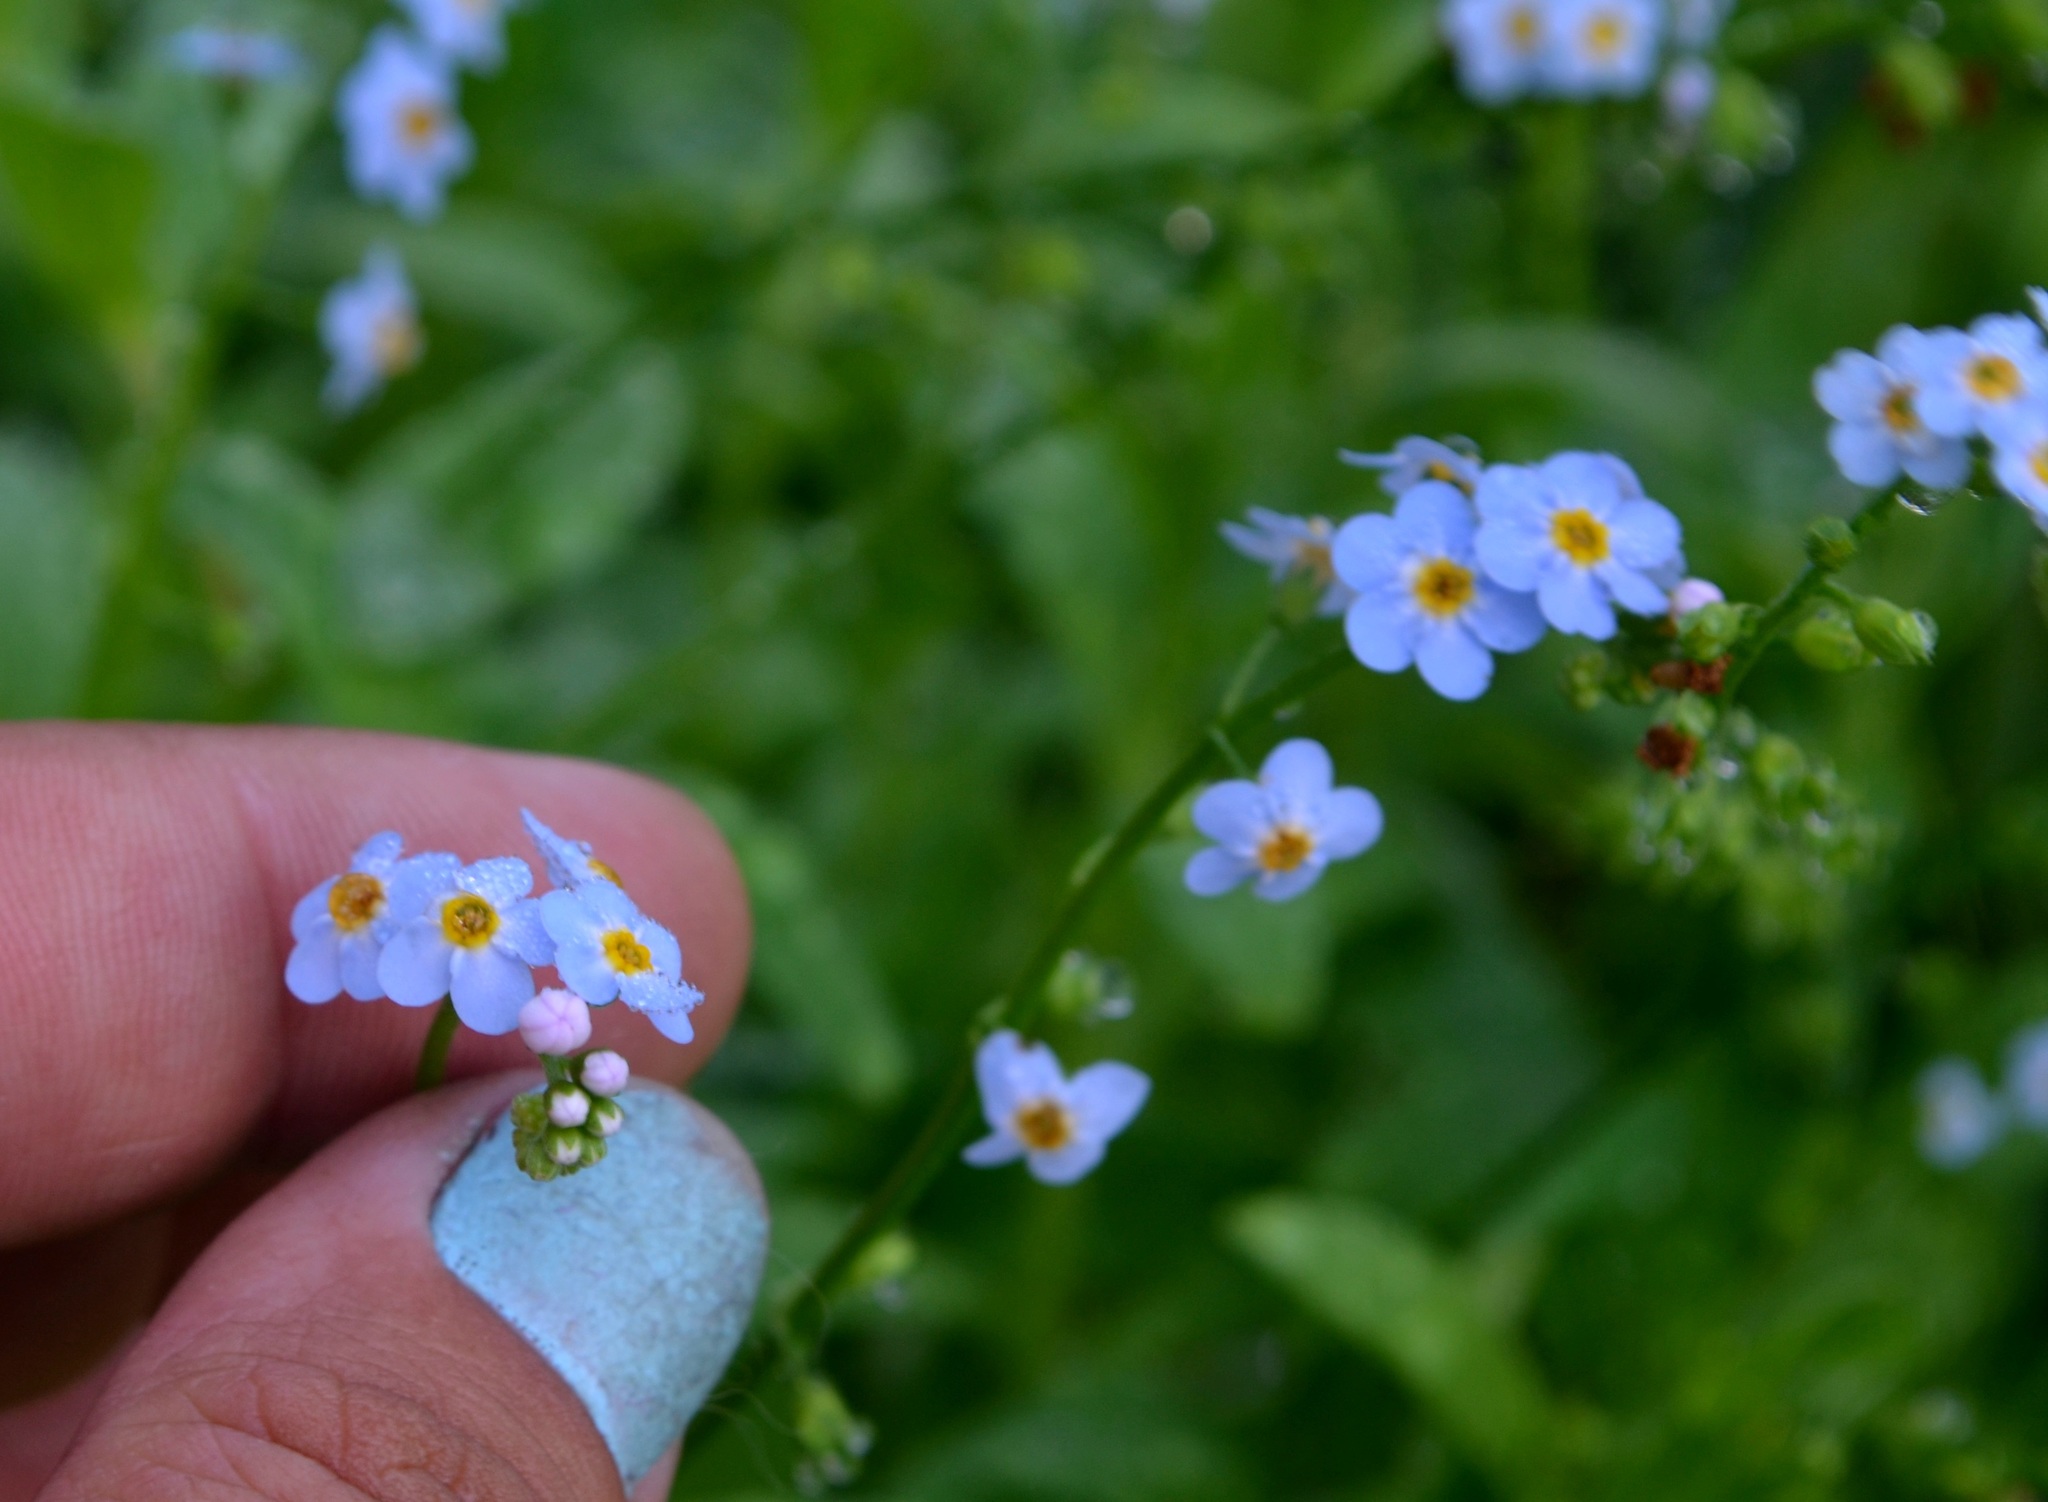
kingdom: Plantae
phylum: Tracheophyta
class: Magnoliopsida
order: Boraginales
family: Boraginaceae
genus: Myosotis
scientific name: Myosotis scorpioides
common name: Water forget-me-not
